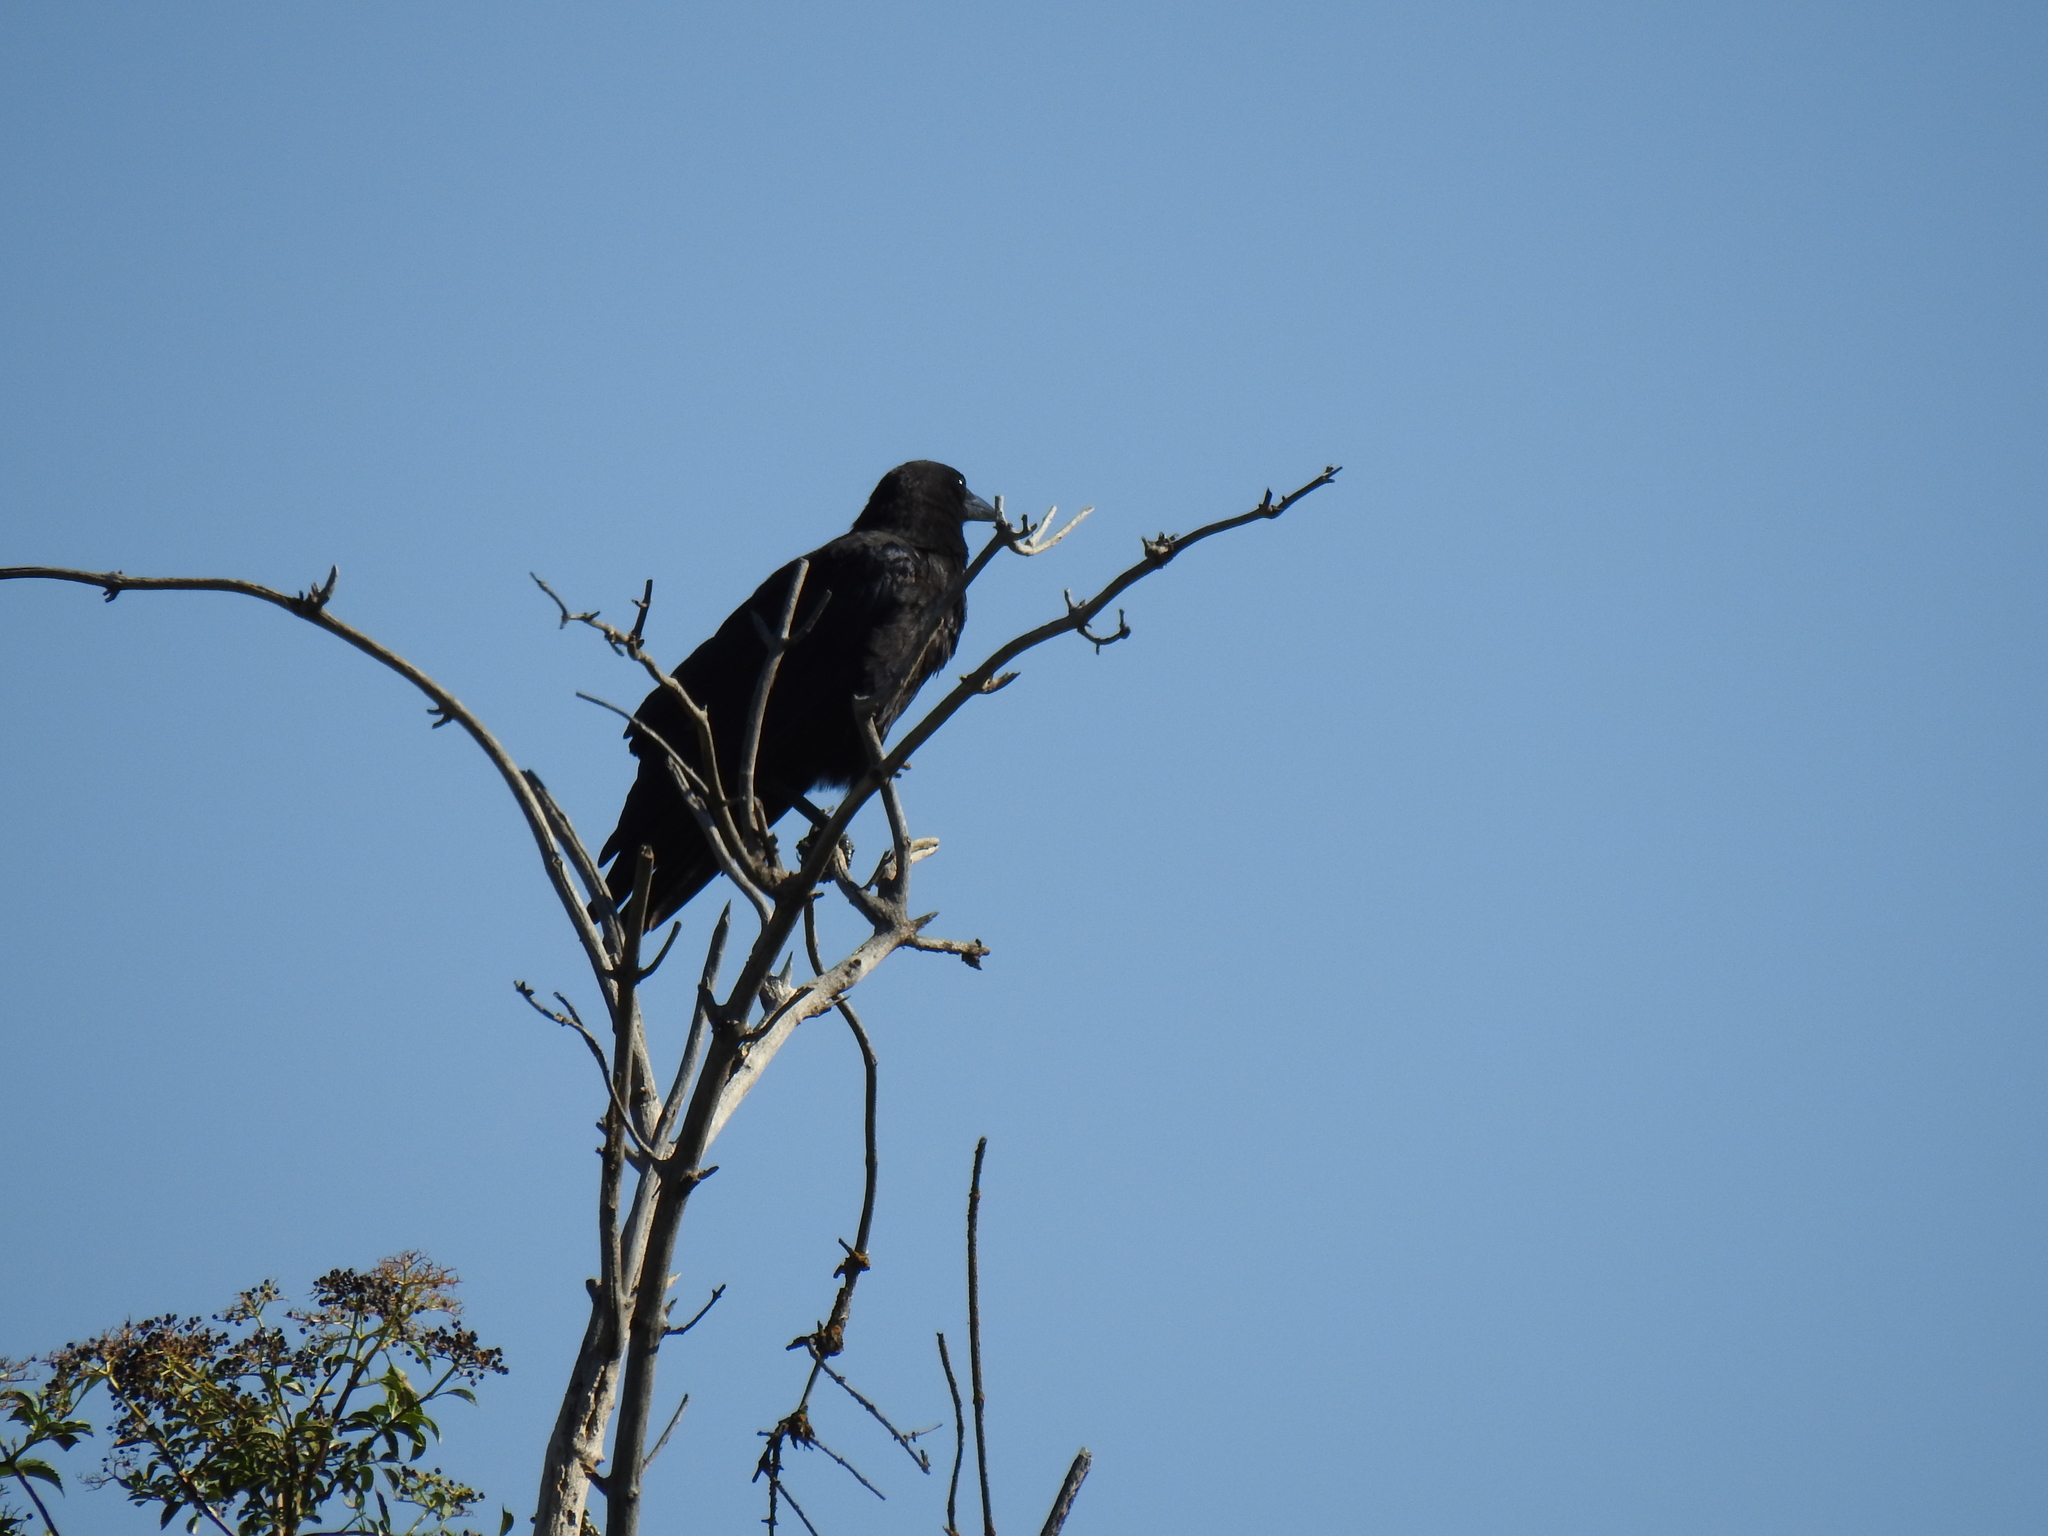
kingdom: Animalia
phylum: Chordata
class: Aves
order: Passeriformes
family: Corvidae
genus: Corvus
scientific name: Corvus brachyrhynchos
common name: American crow
